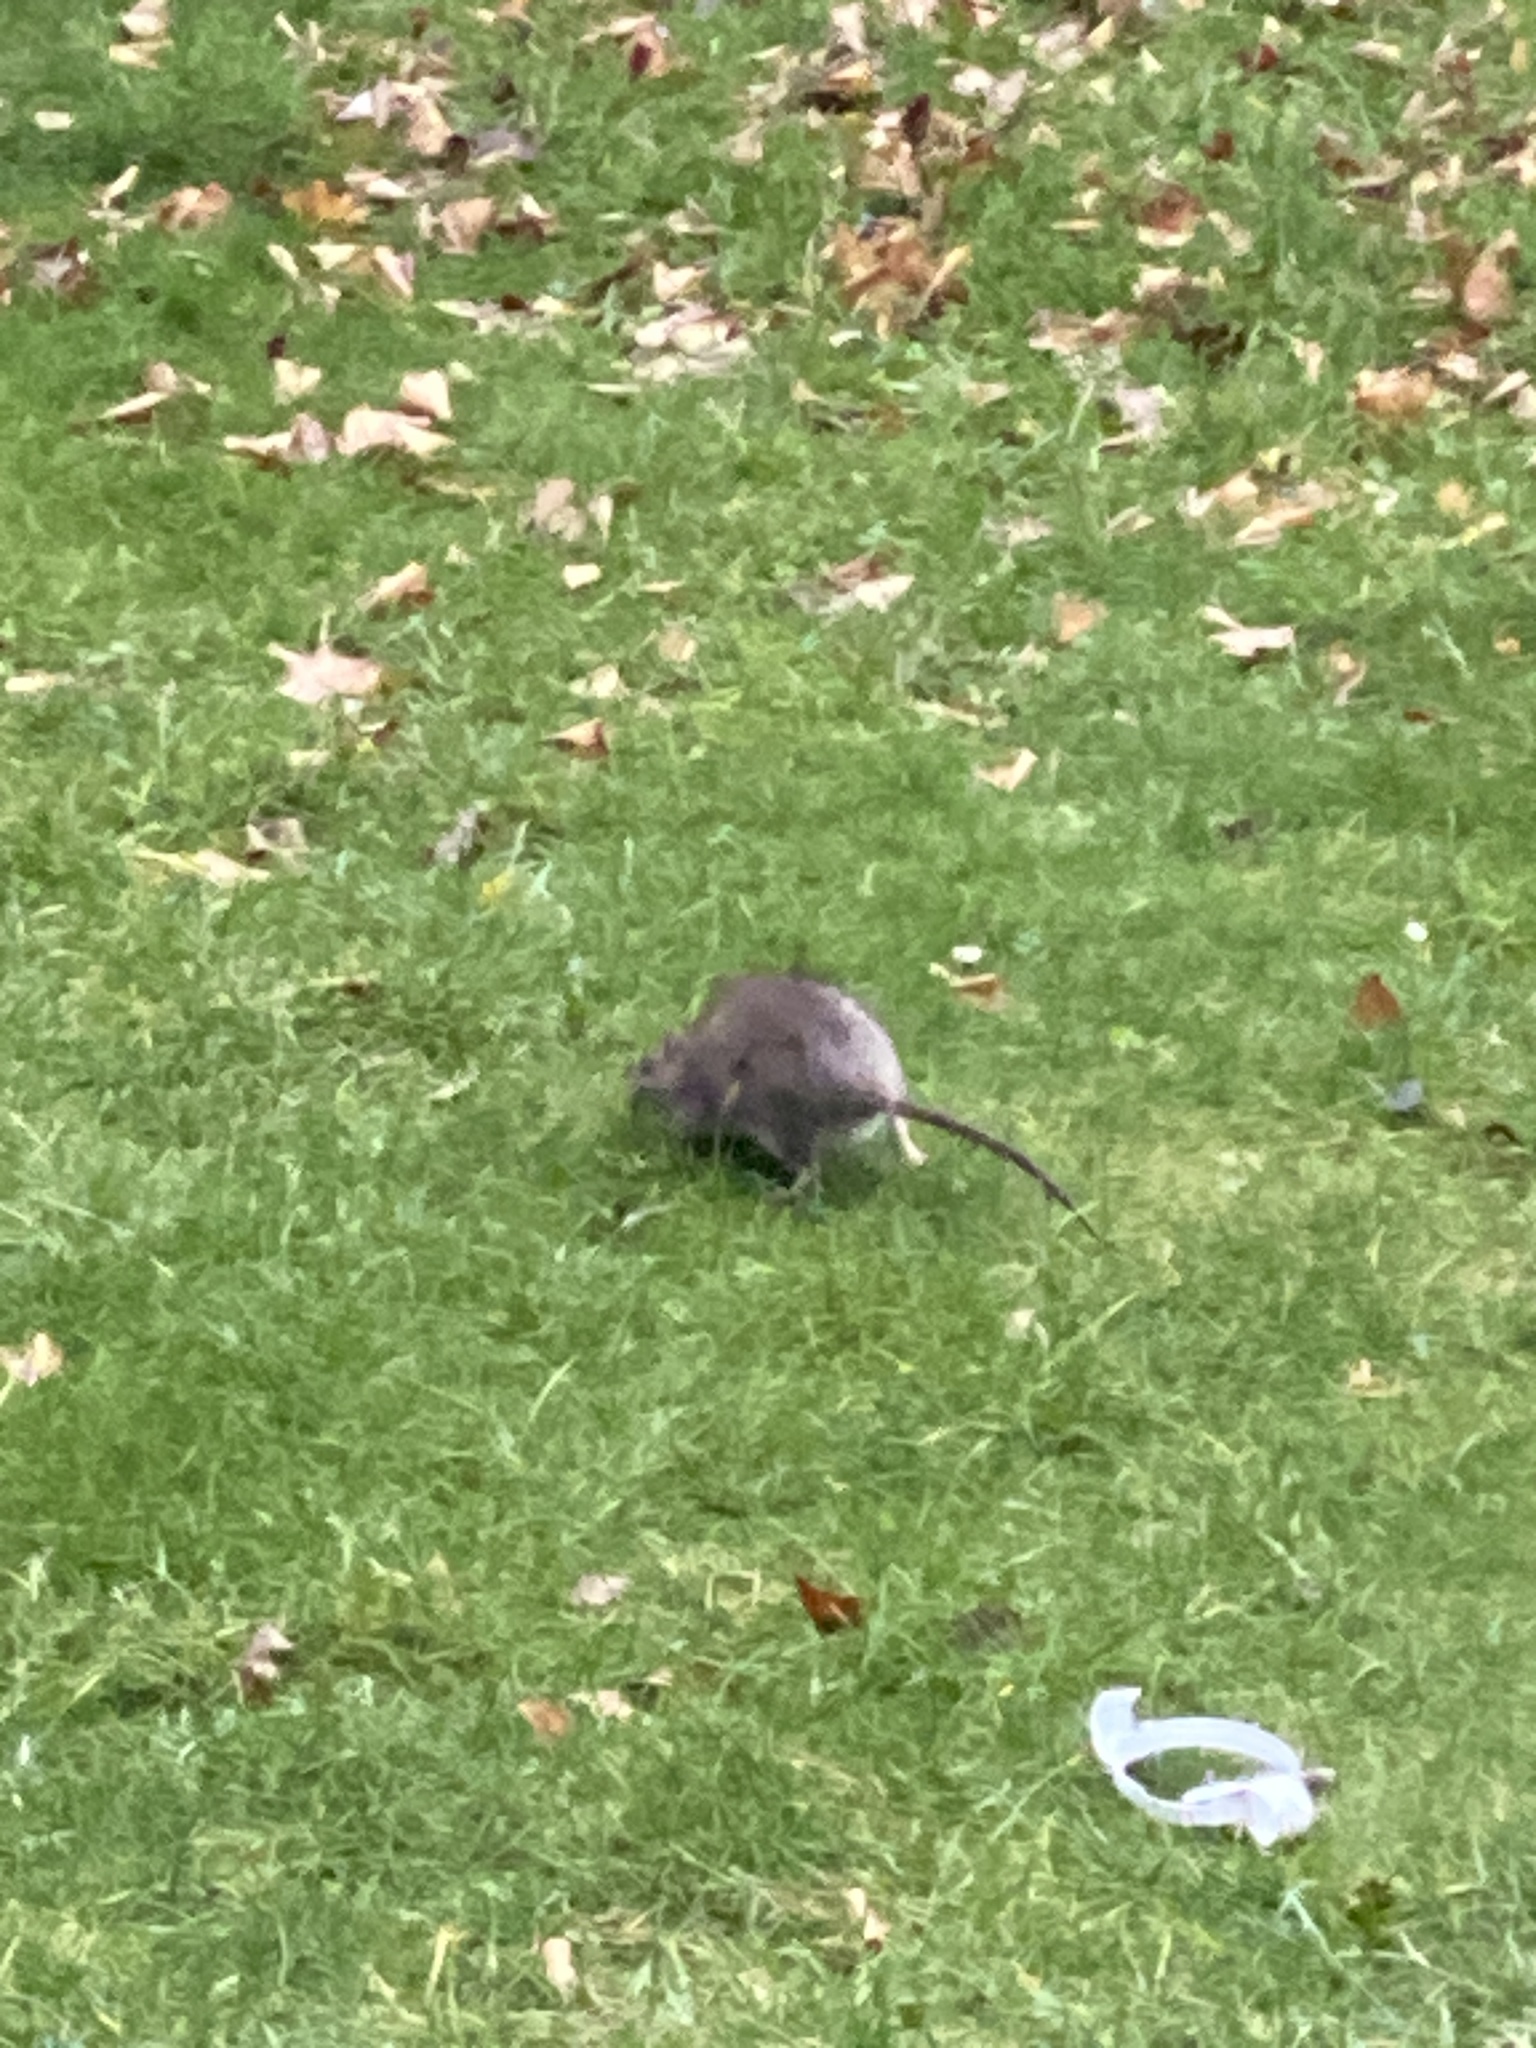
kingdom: Animalia
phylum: Chordata
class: Mammalia
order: Rodentia
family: Muridae
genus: Rattus
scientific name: Rattus norvegicus
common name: Brown rat
